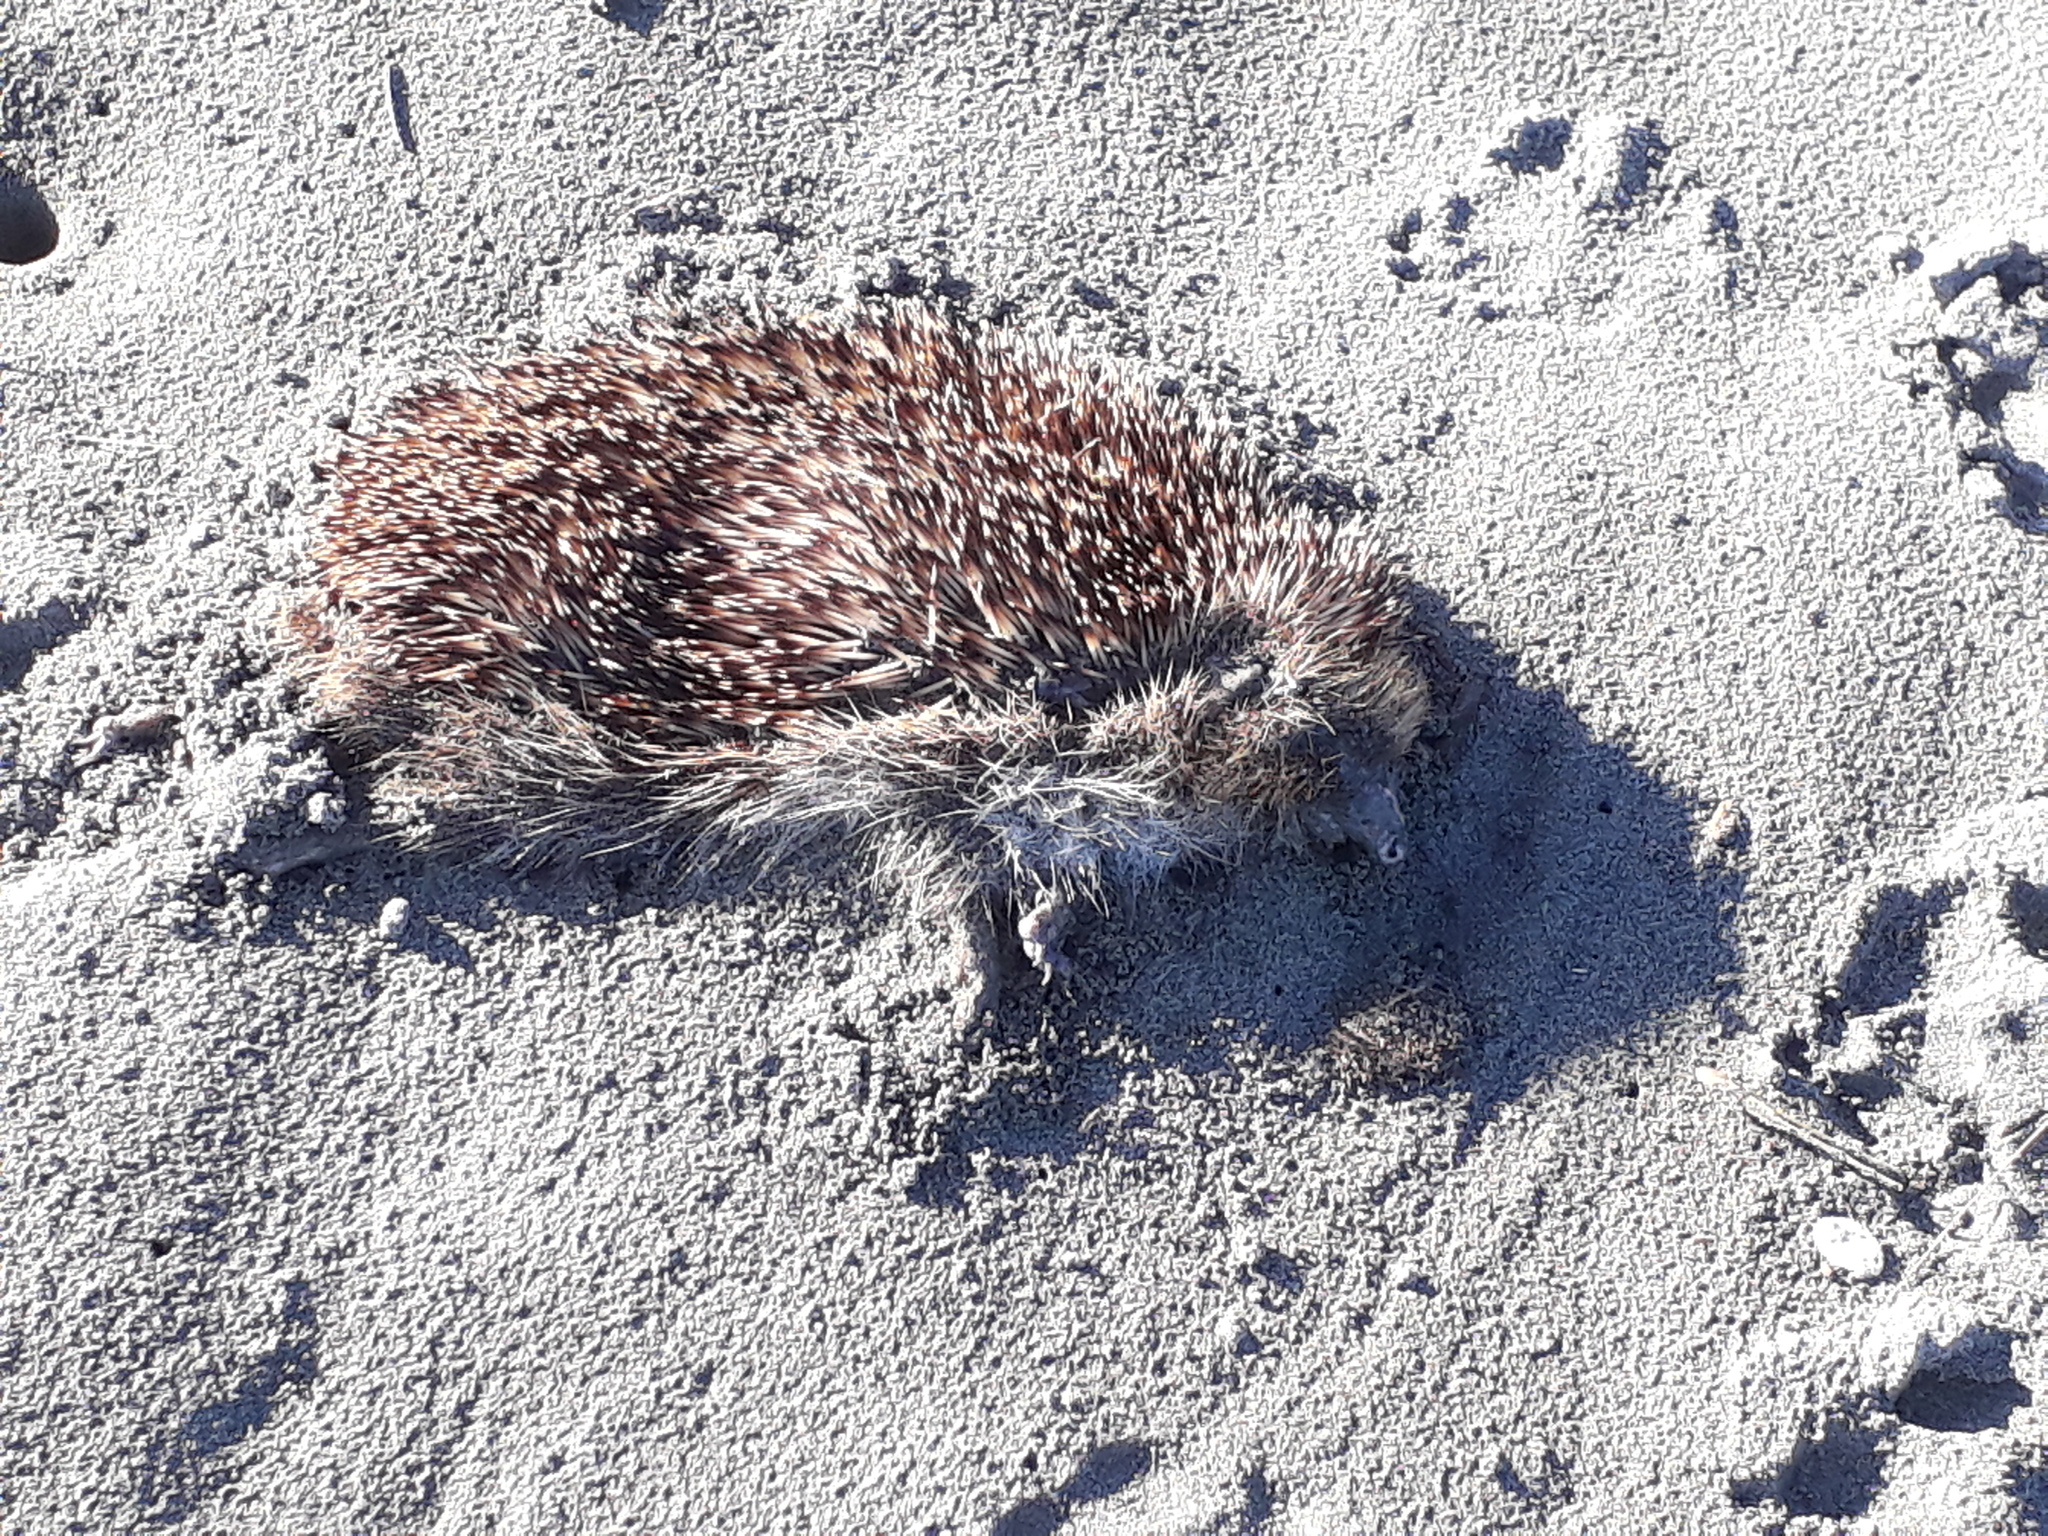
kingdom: Animalia
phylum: Chordata
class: Mammalia
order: Erinaceomorpha
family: Erinaceidae
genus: Erinaceus
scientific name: Erinaceus europaeus
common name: West european hedgehog
